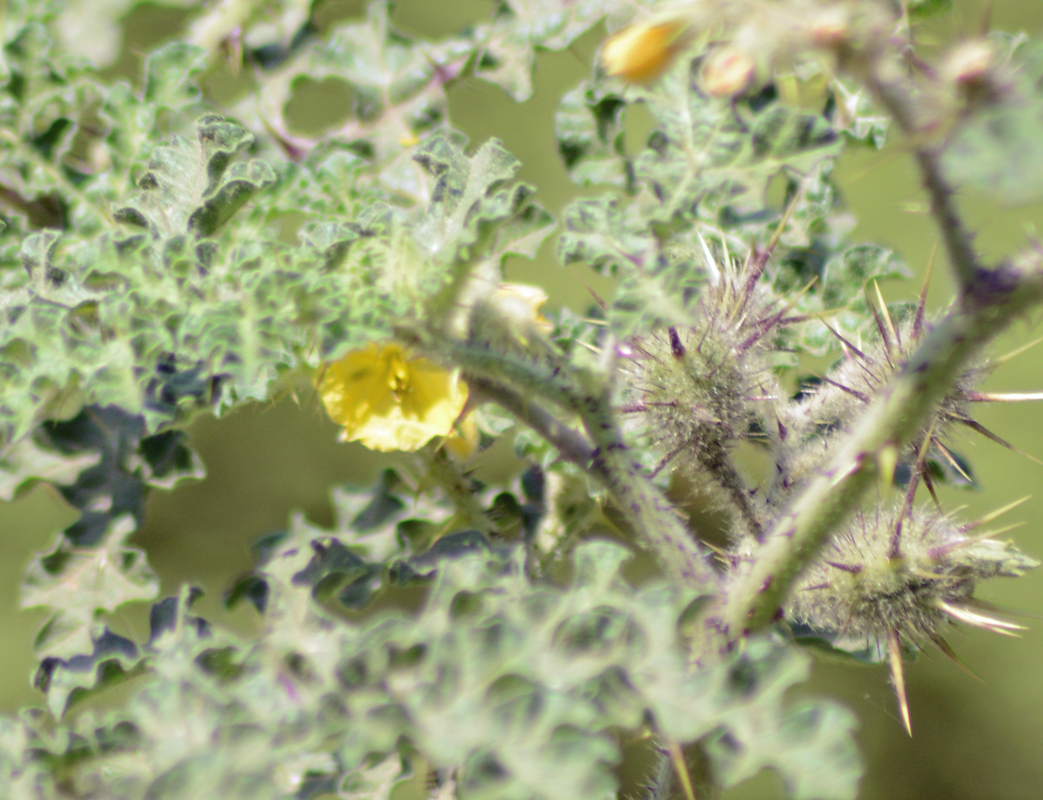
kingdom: Plantae
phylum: Tracheophyta
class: Magnoliopsida
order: Solanales
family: Solanaceae
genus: Solanum
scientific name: Solanum tectum
